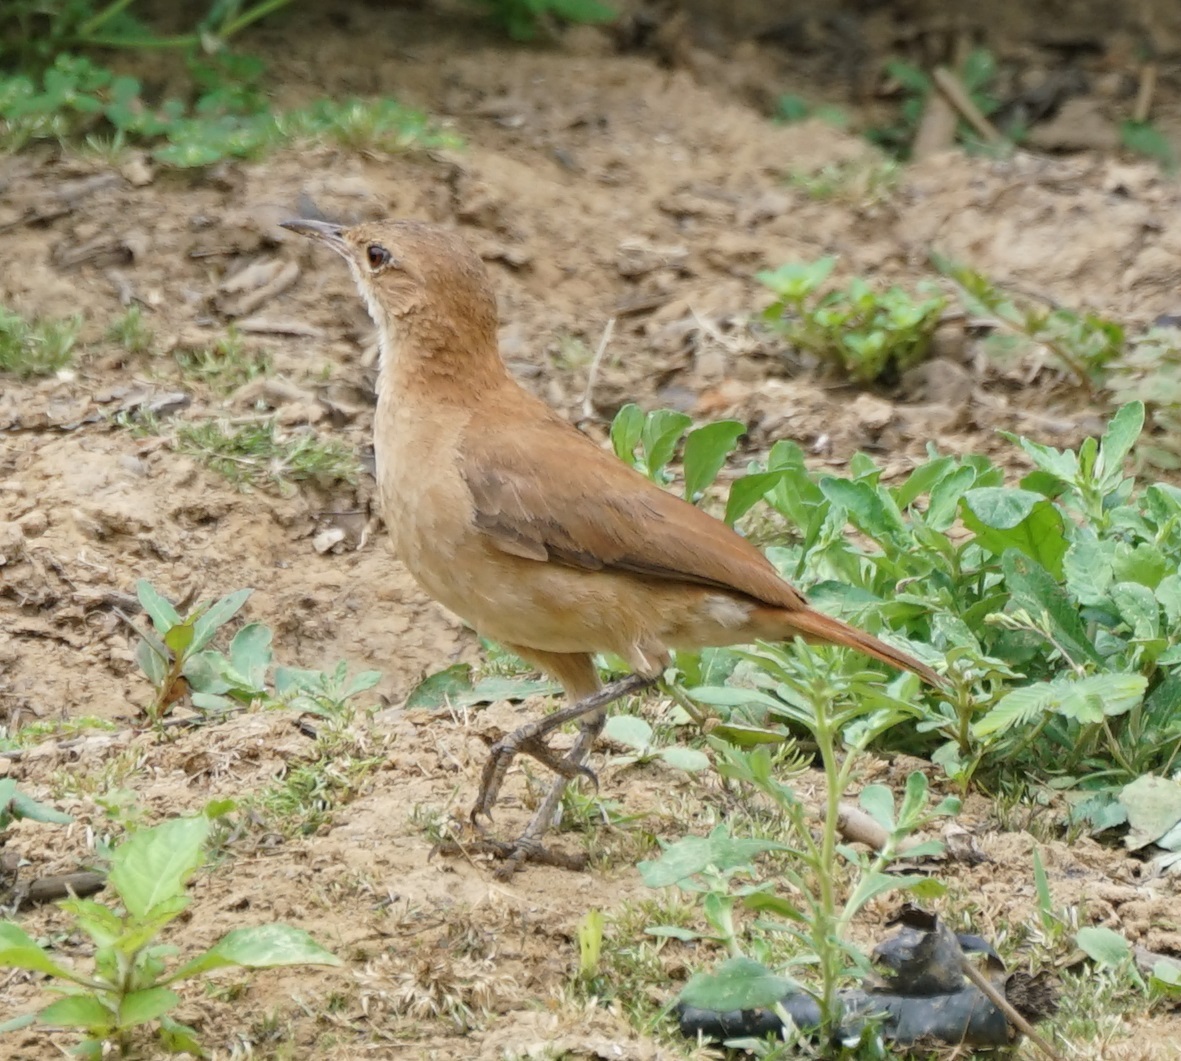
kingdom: Animalia
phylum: Chordata
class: Aves
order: Passeriformes
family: Furnariidae
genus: Furnarius
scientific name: Furnarius rufus
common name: Rufous hornero
